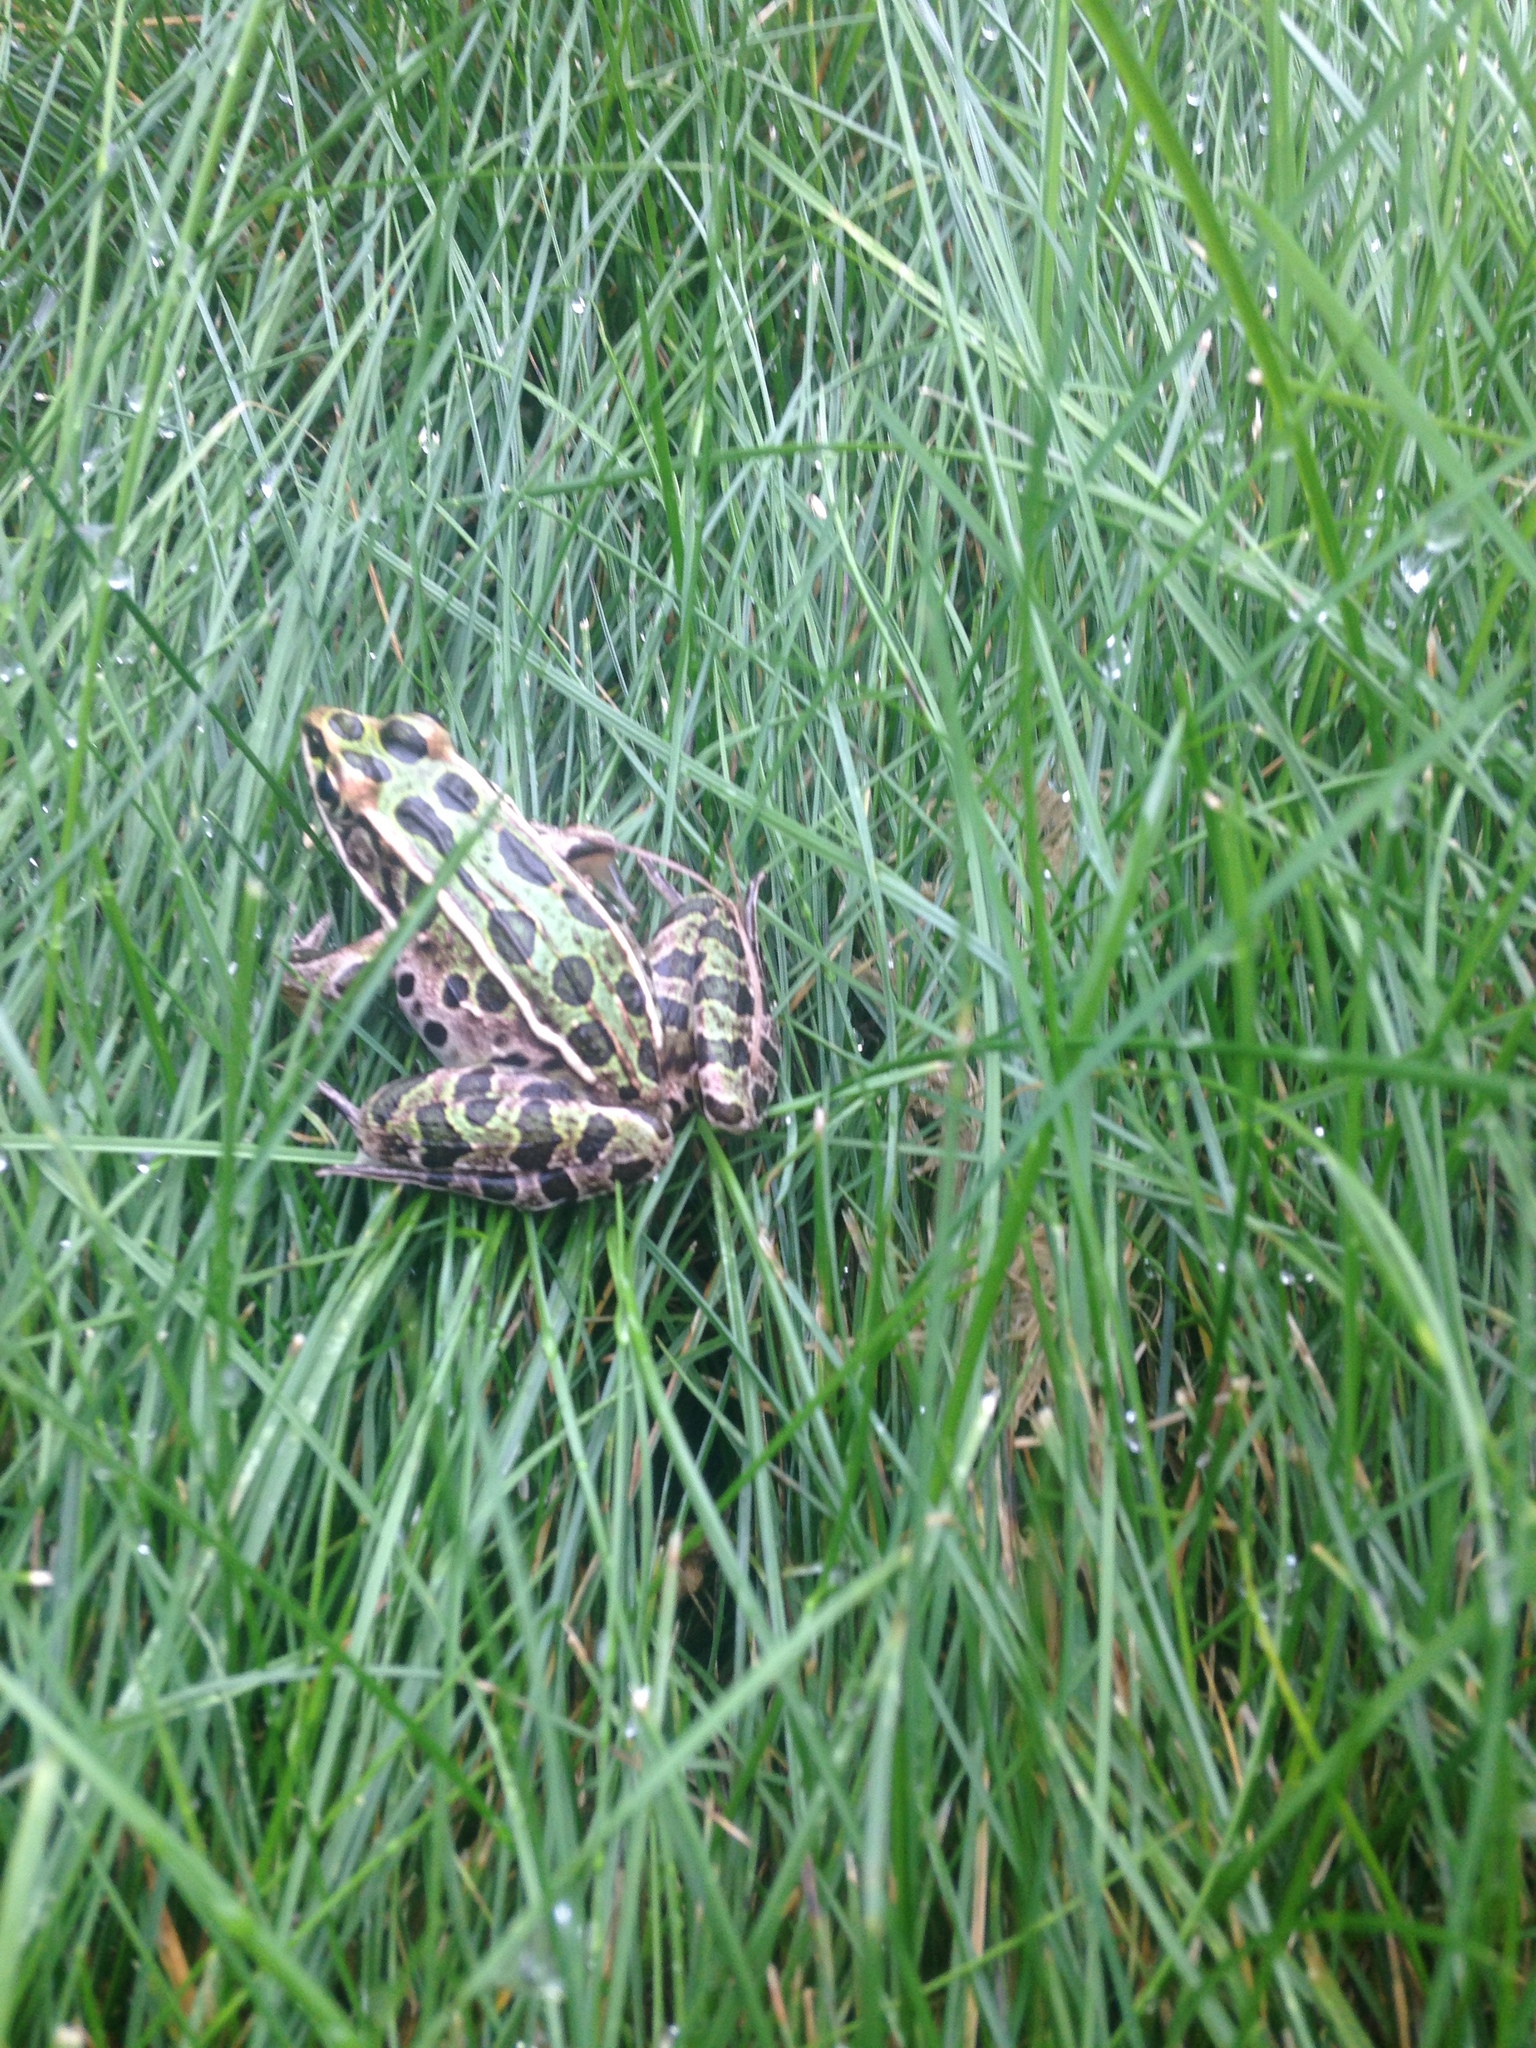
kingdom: Animalia
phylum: Chordata
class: Amphibia
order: Anura
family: Ranidae
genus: Lithobates
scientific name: Lithobates pipiens
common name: Northern leopard frog
